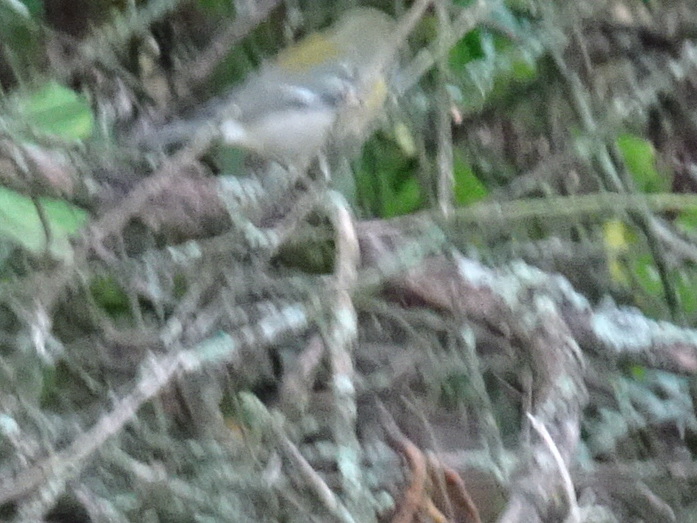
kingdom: Animalia
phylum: Chordata
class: Aves
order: Passeriformes
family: Parulidae
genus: Setophaga
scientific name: Setophaga americana
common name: Northern parula
